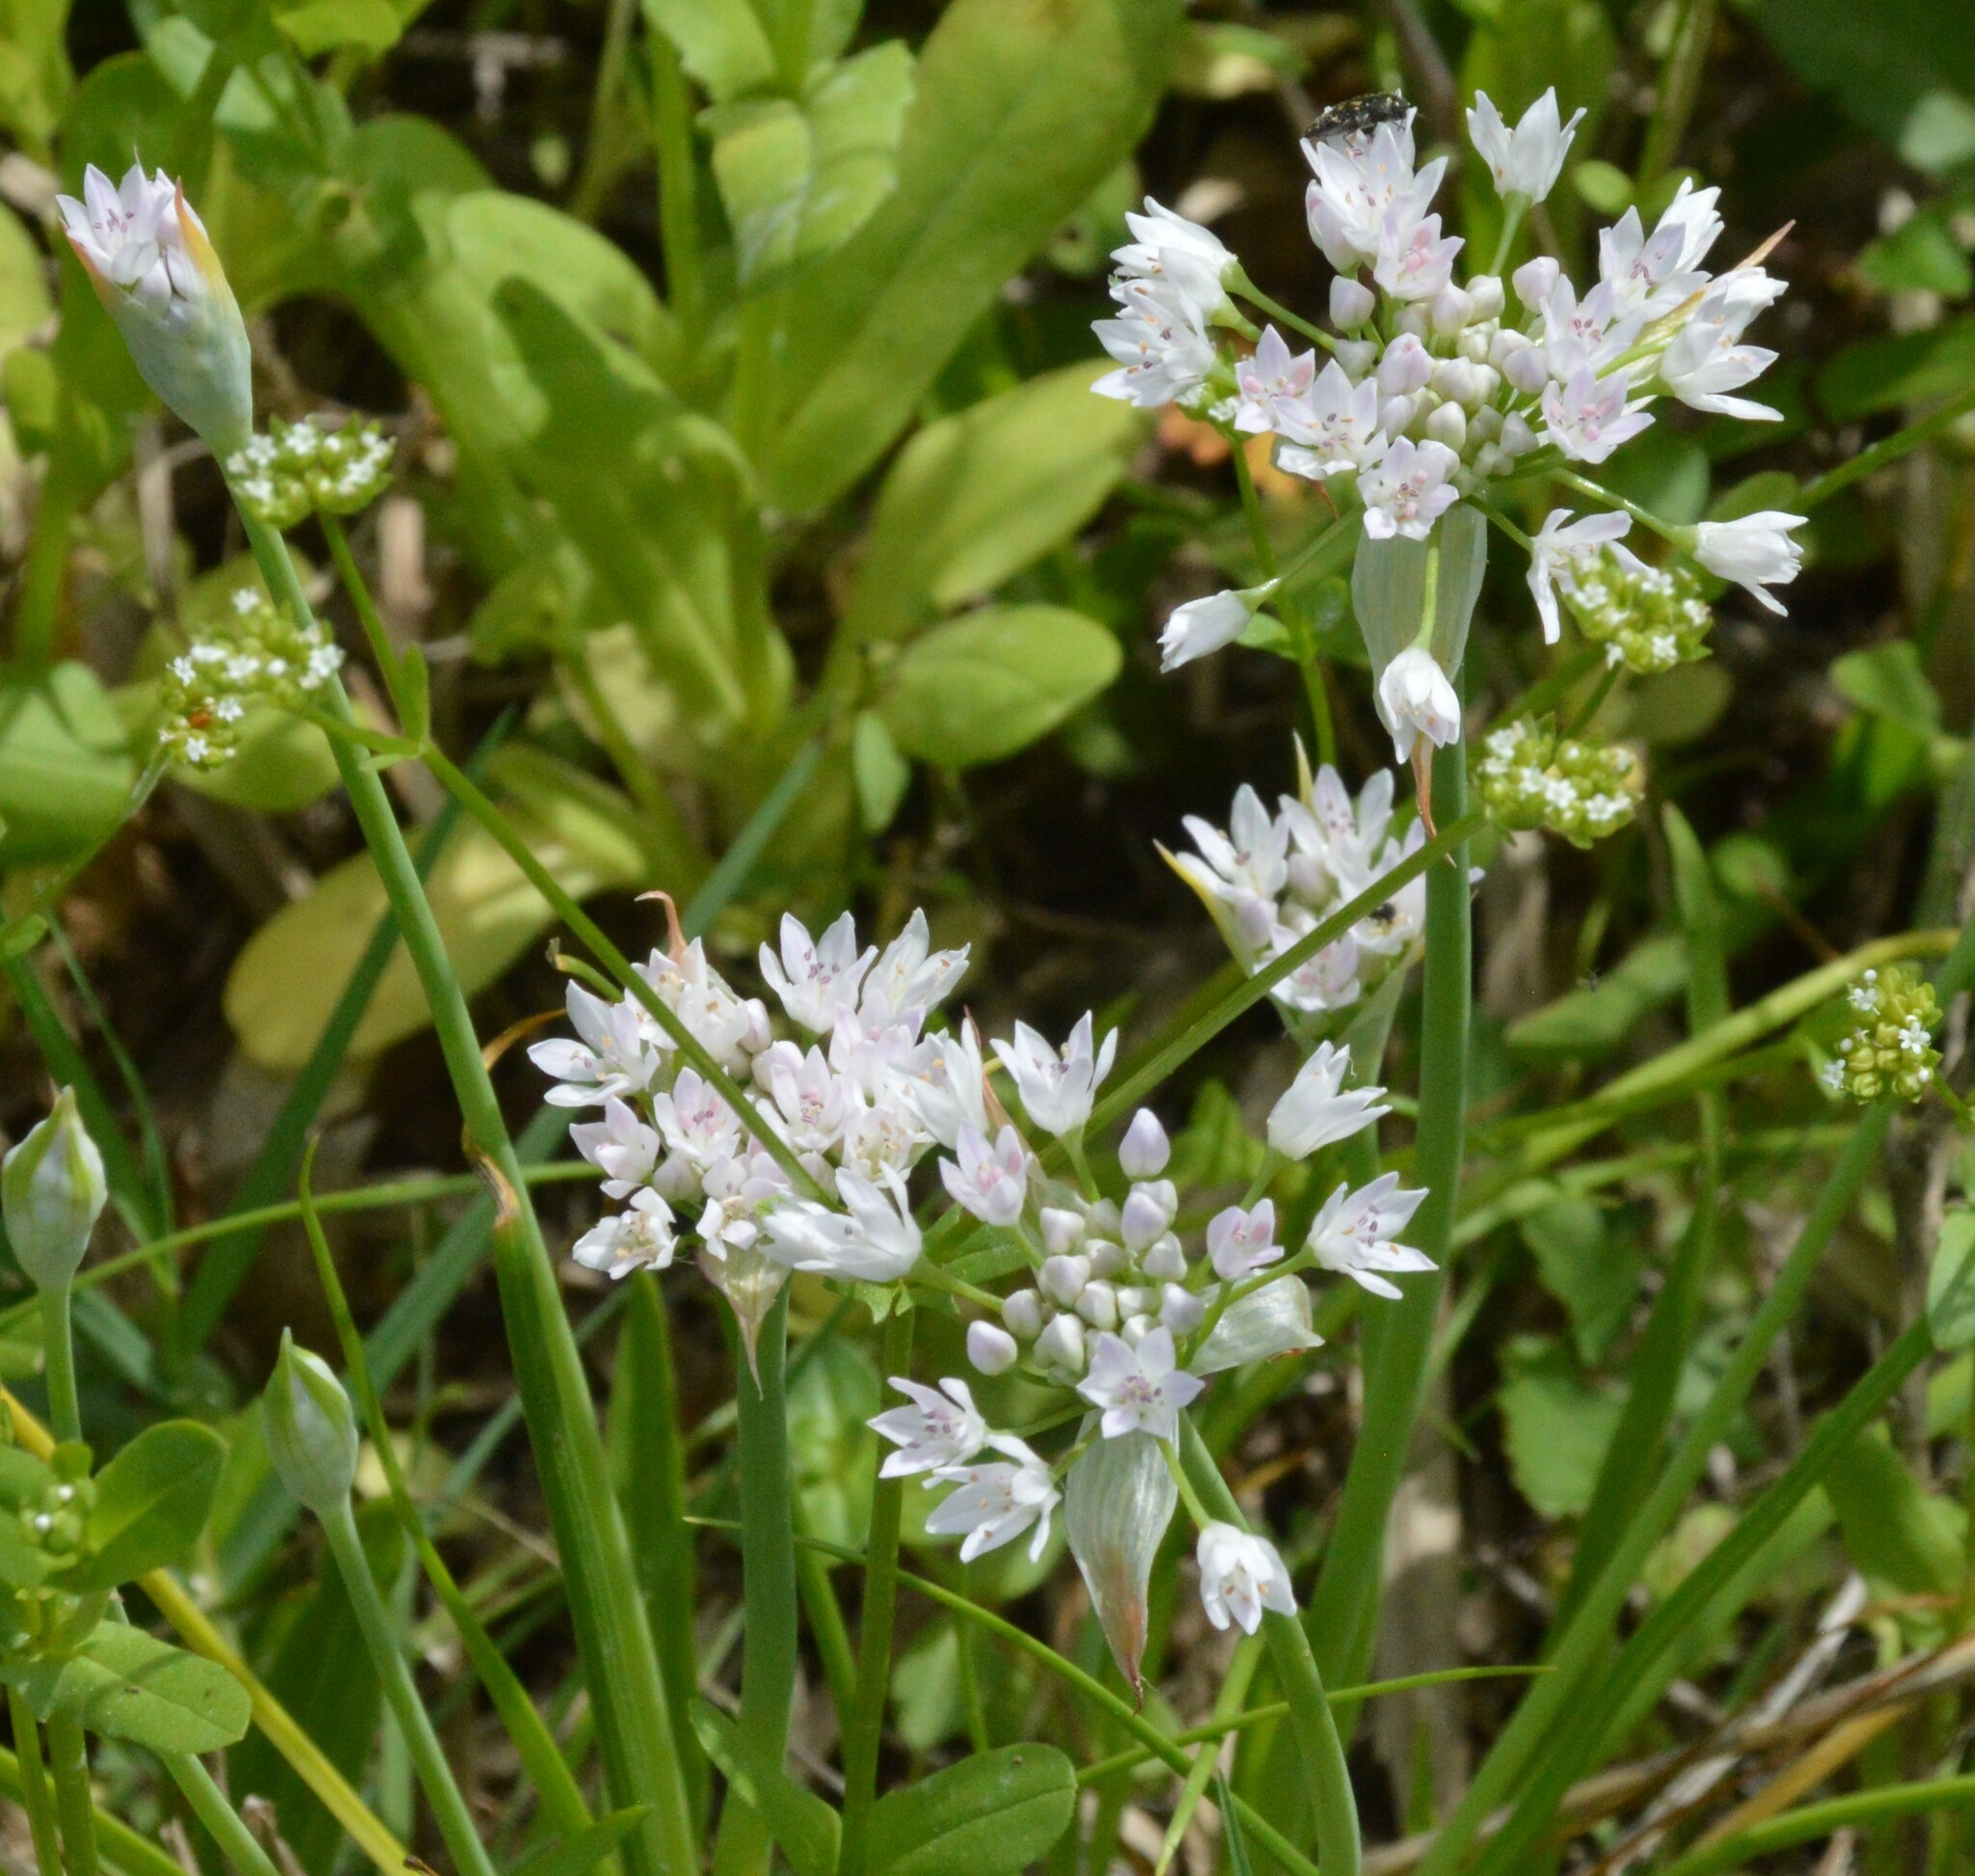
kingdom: Plantae
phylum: Tracheophyta
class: Liliopsida
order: Asparagales
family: Amaryllidaceae
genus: Allium
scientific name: Allium drummondii
